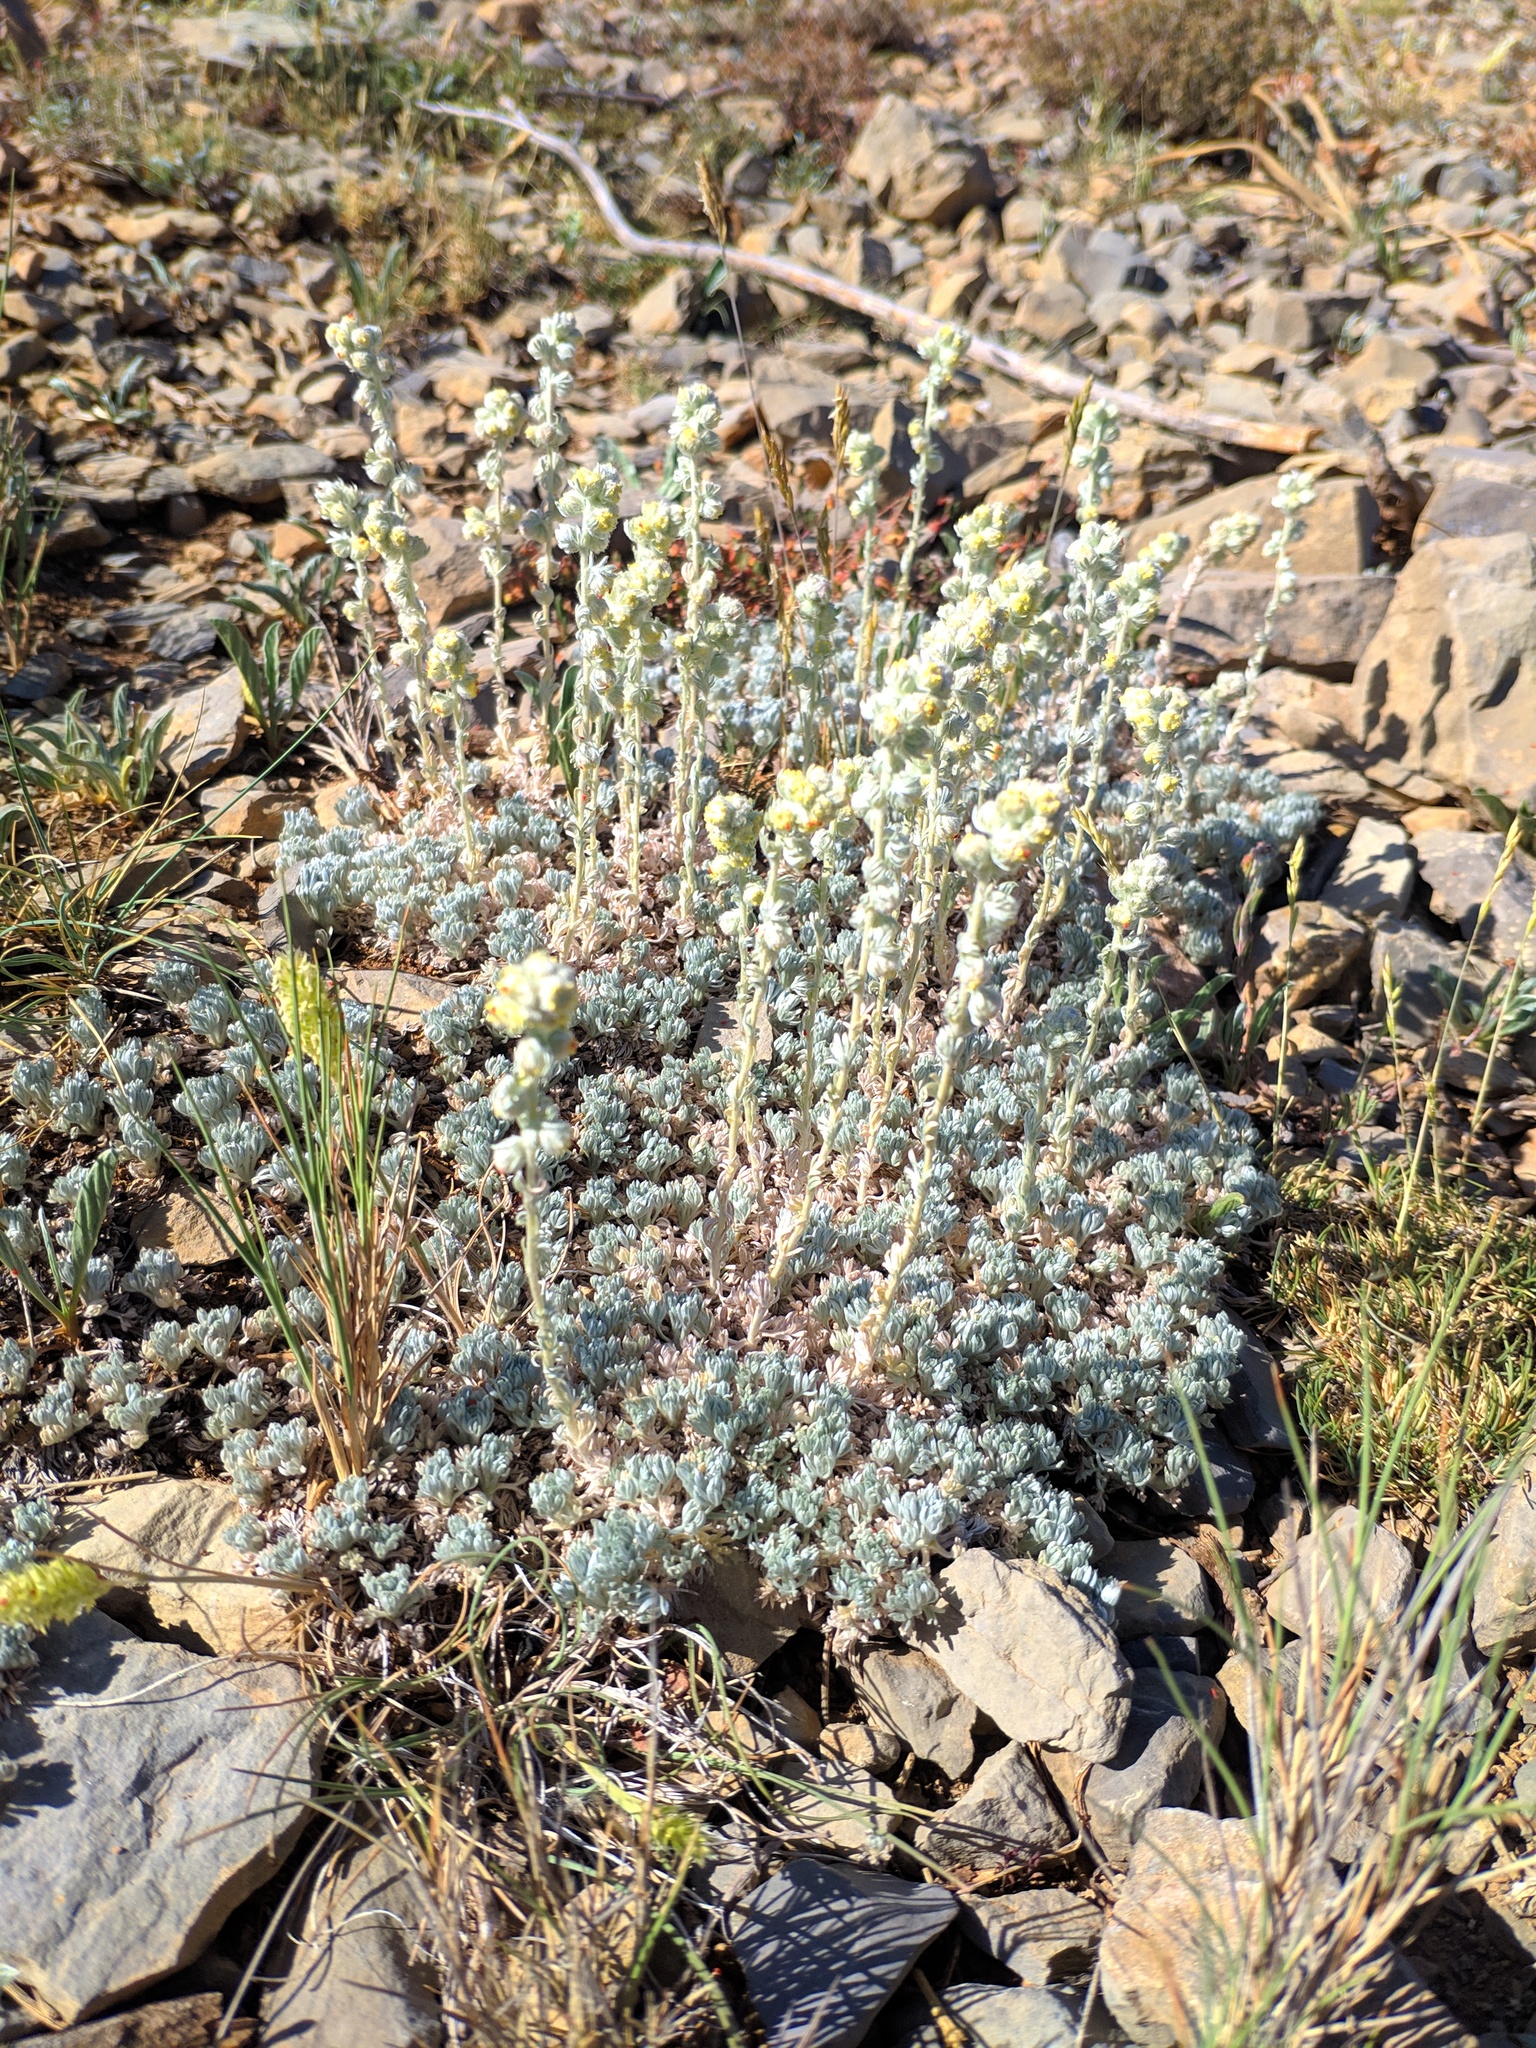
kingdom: Plantae
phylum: Tracheophyta
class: Magnoliopsida
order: Asterales
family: Asteraceae
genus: Artemisia
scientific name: Artemisia assoana
